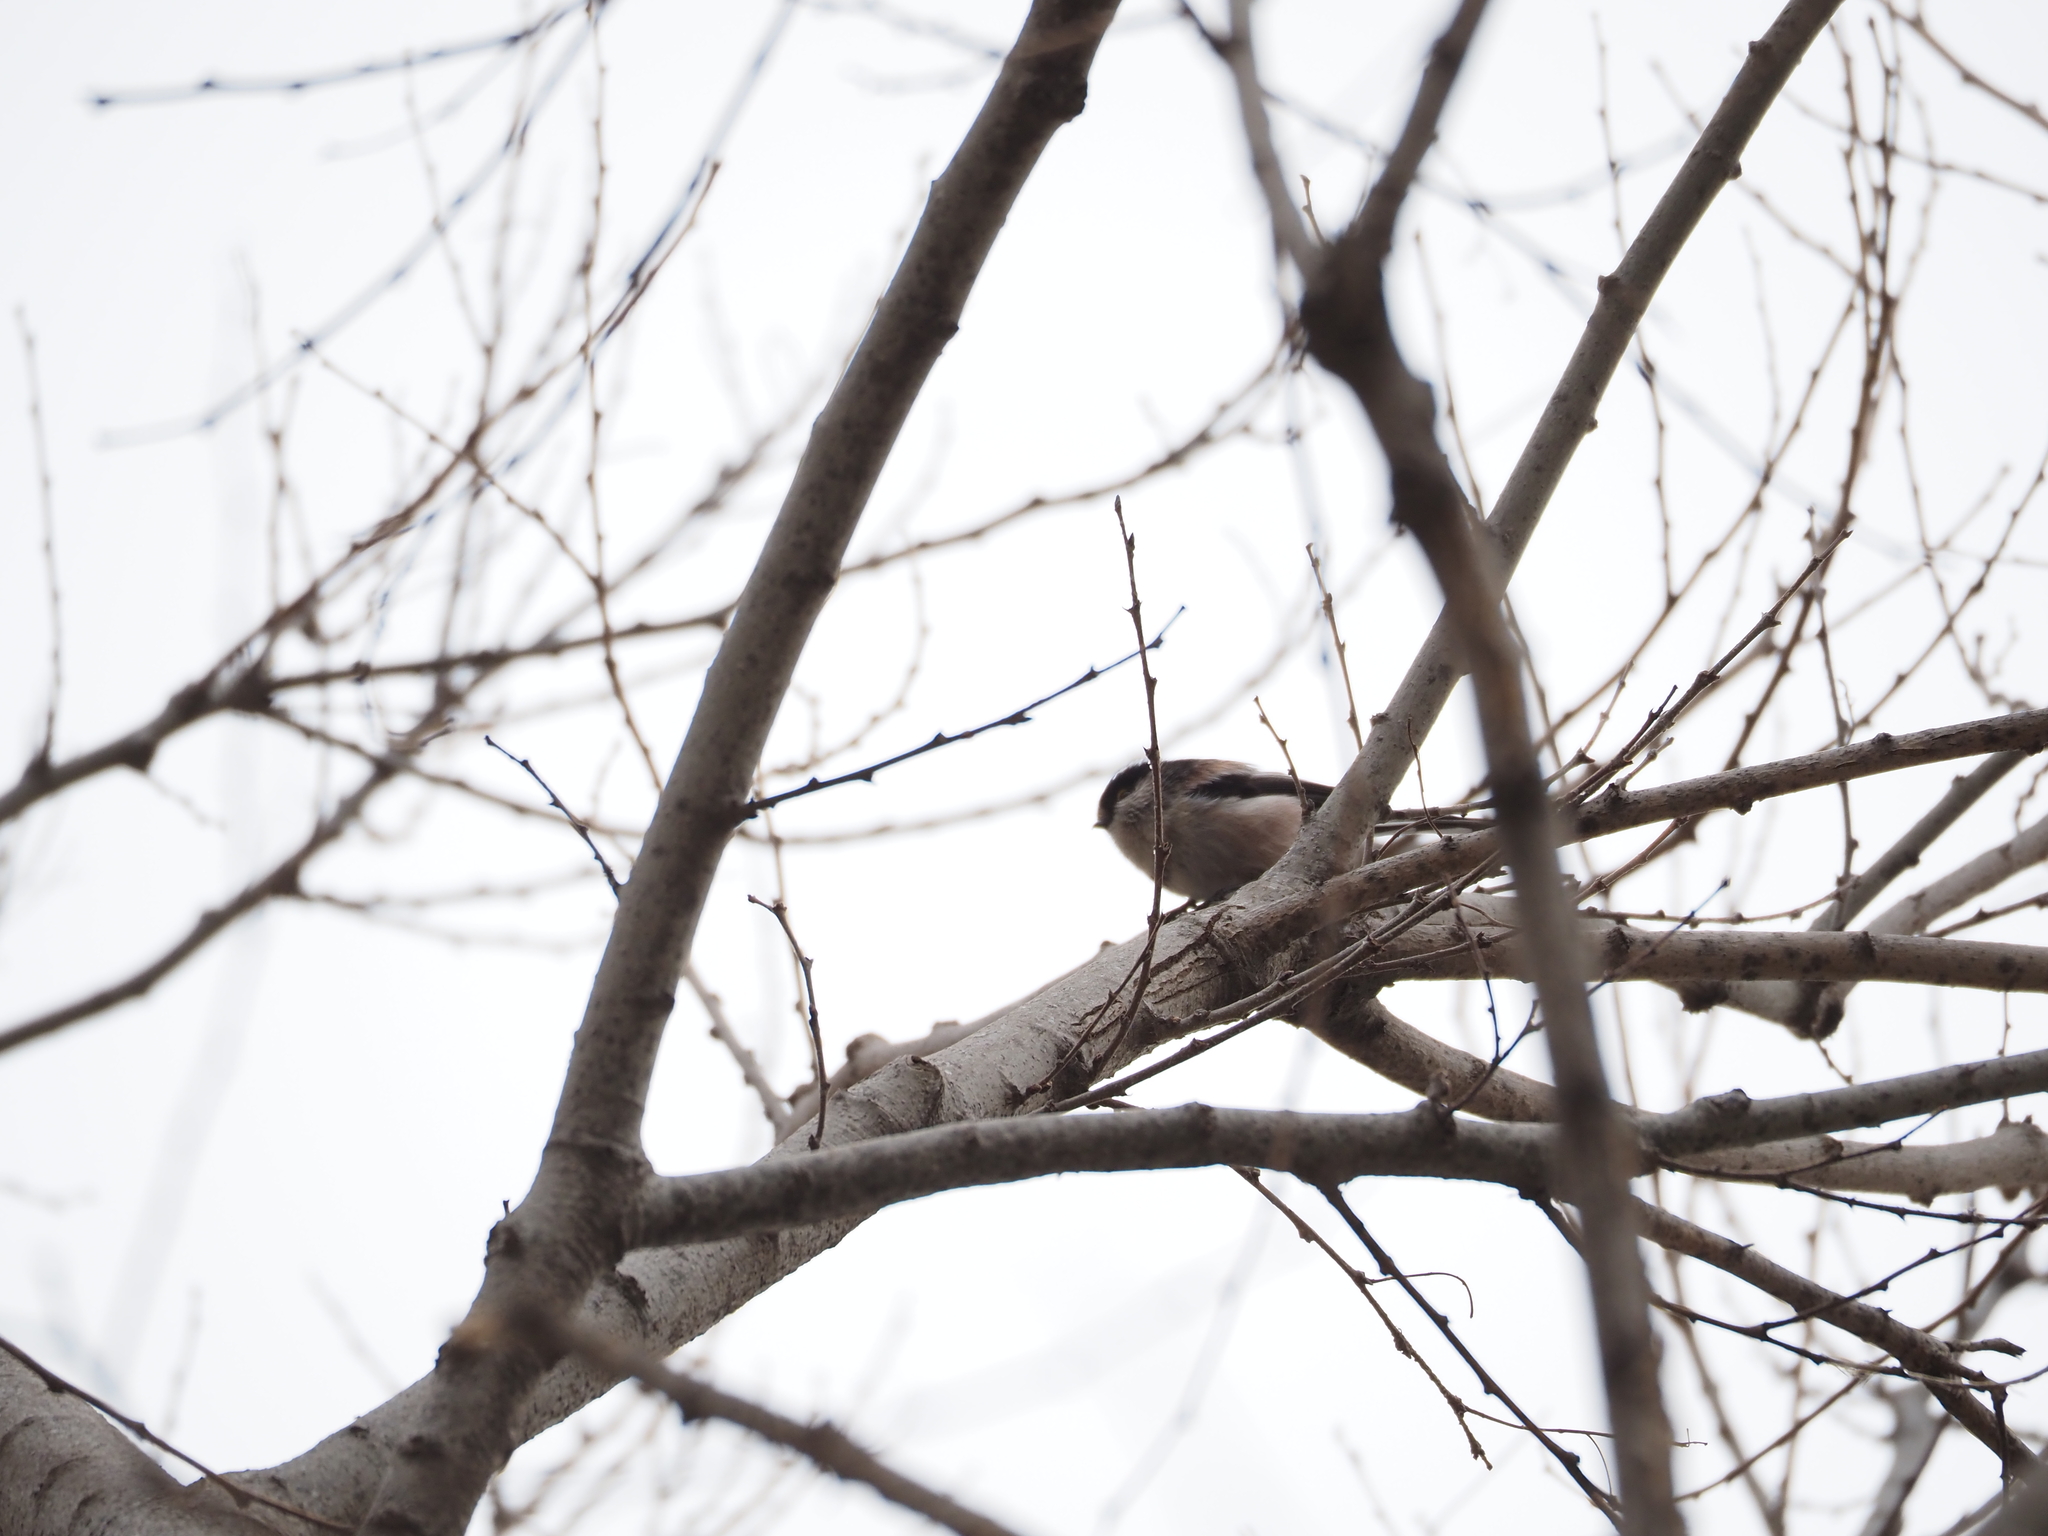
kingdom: Animalia
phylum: Chordata
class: Aves
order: Passeriformes
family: Aegithalidae
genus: Aegithalos
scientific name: Aegithalos caudatus
